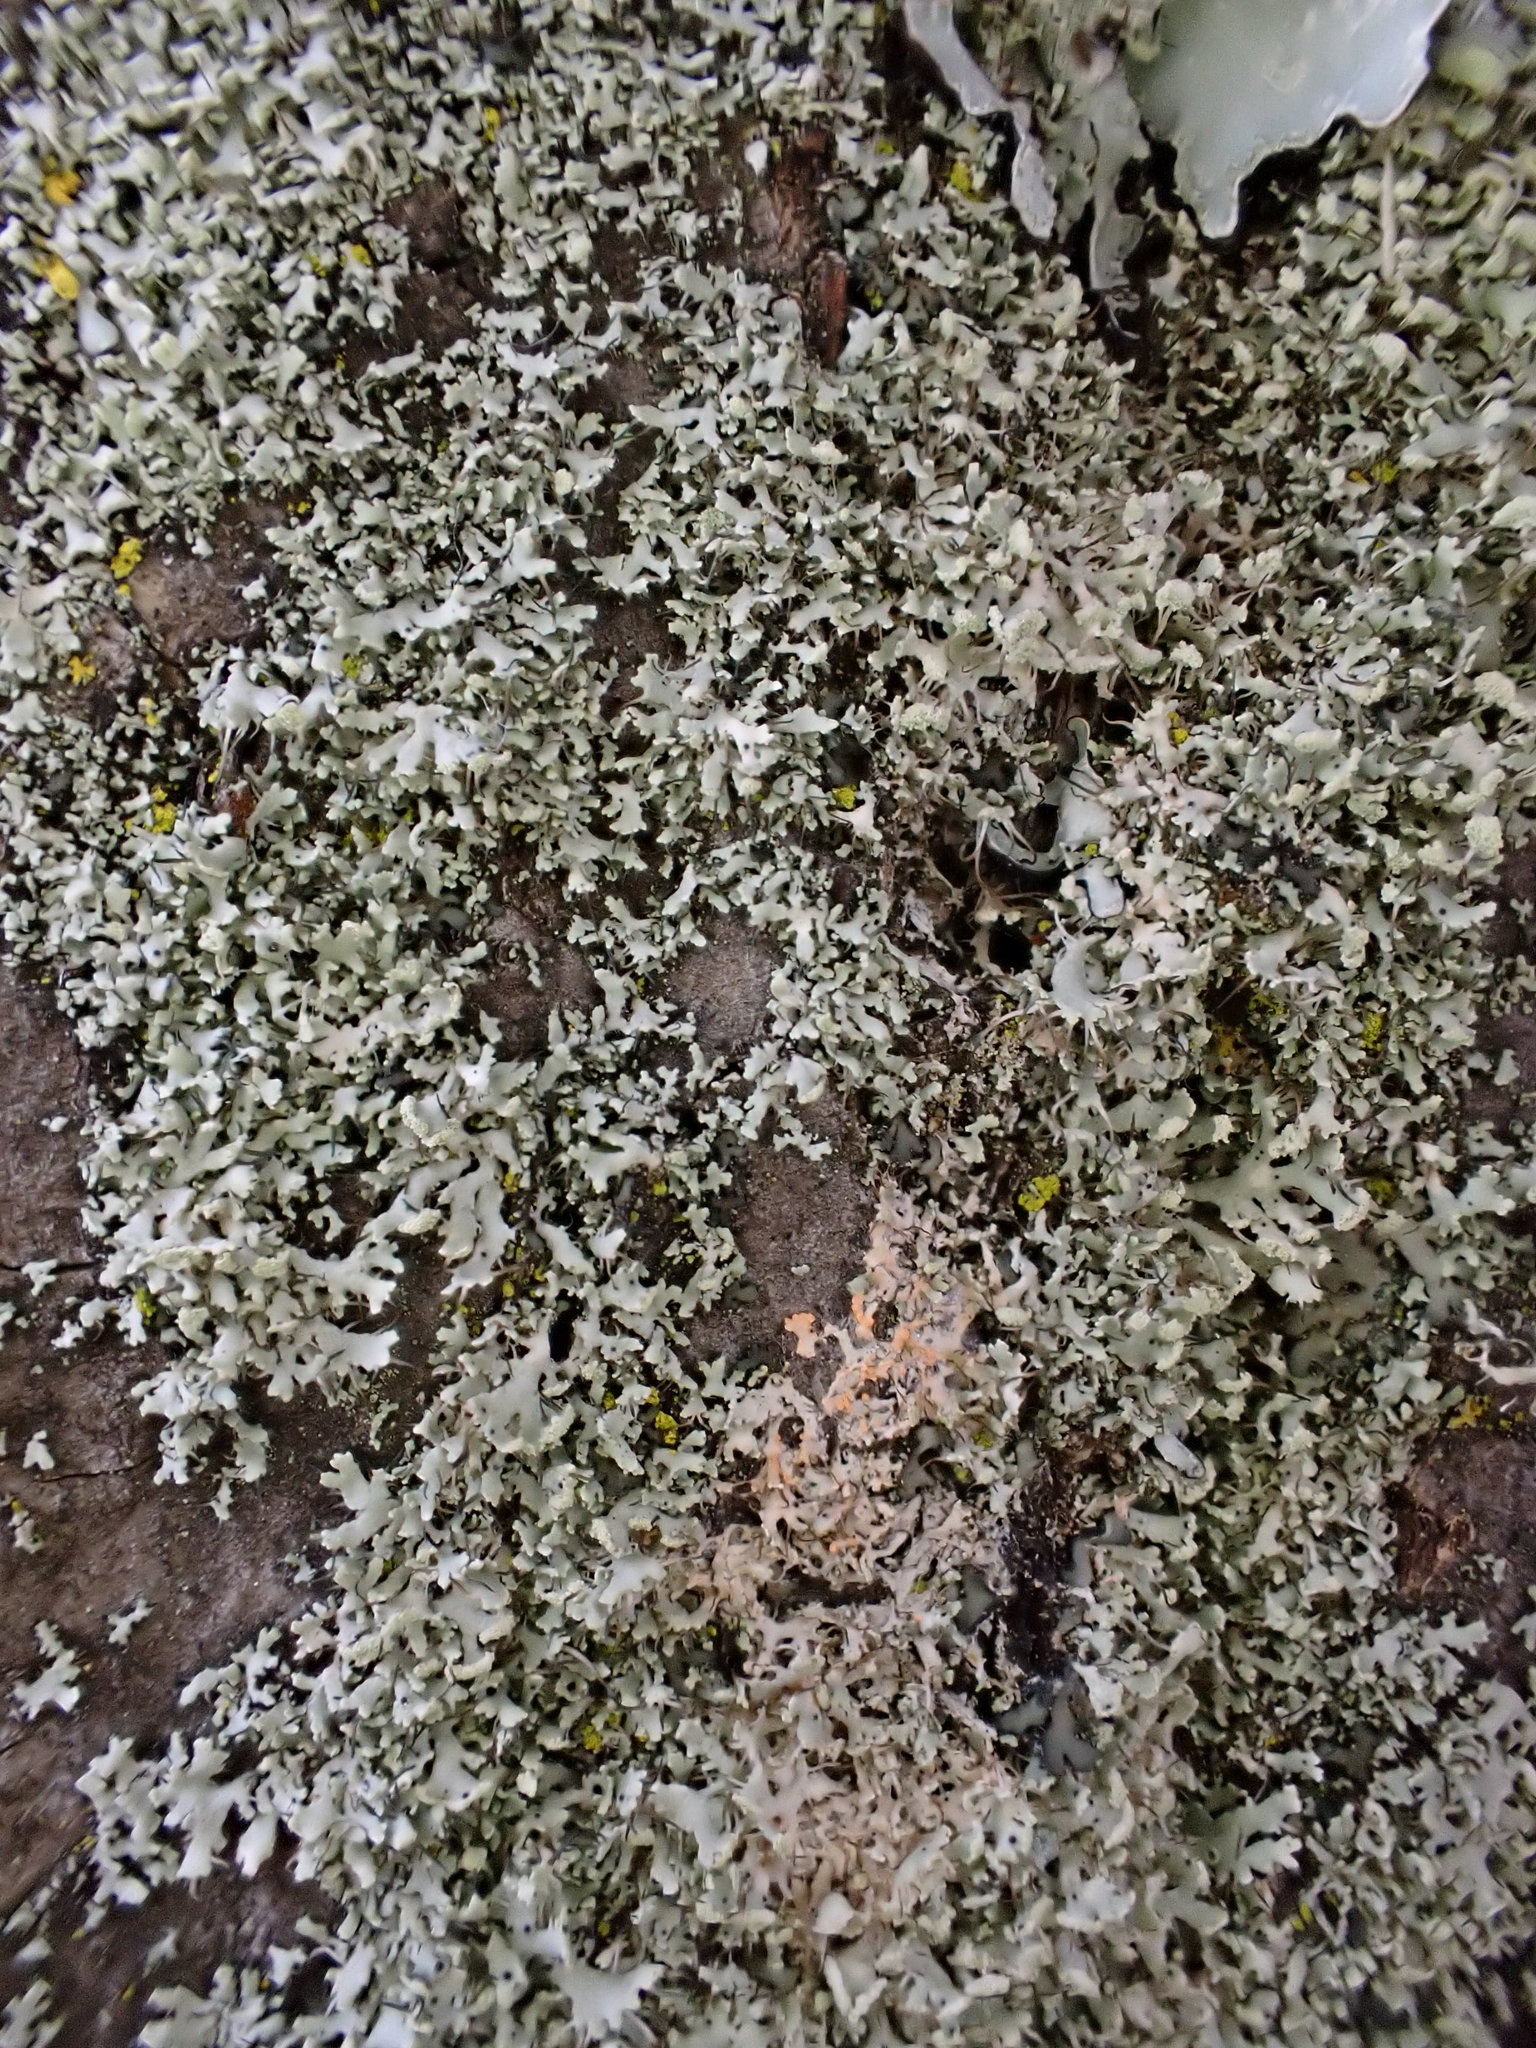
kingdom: Fungi
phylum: Ascomycota
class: Lecanoromycetes
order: Caliciales
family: Physciaceae
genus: Physcia
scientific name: Physcia adscendens
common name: Hooded rosette lichen
